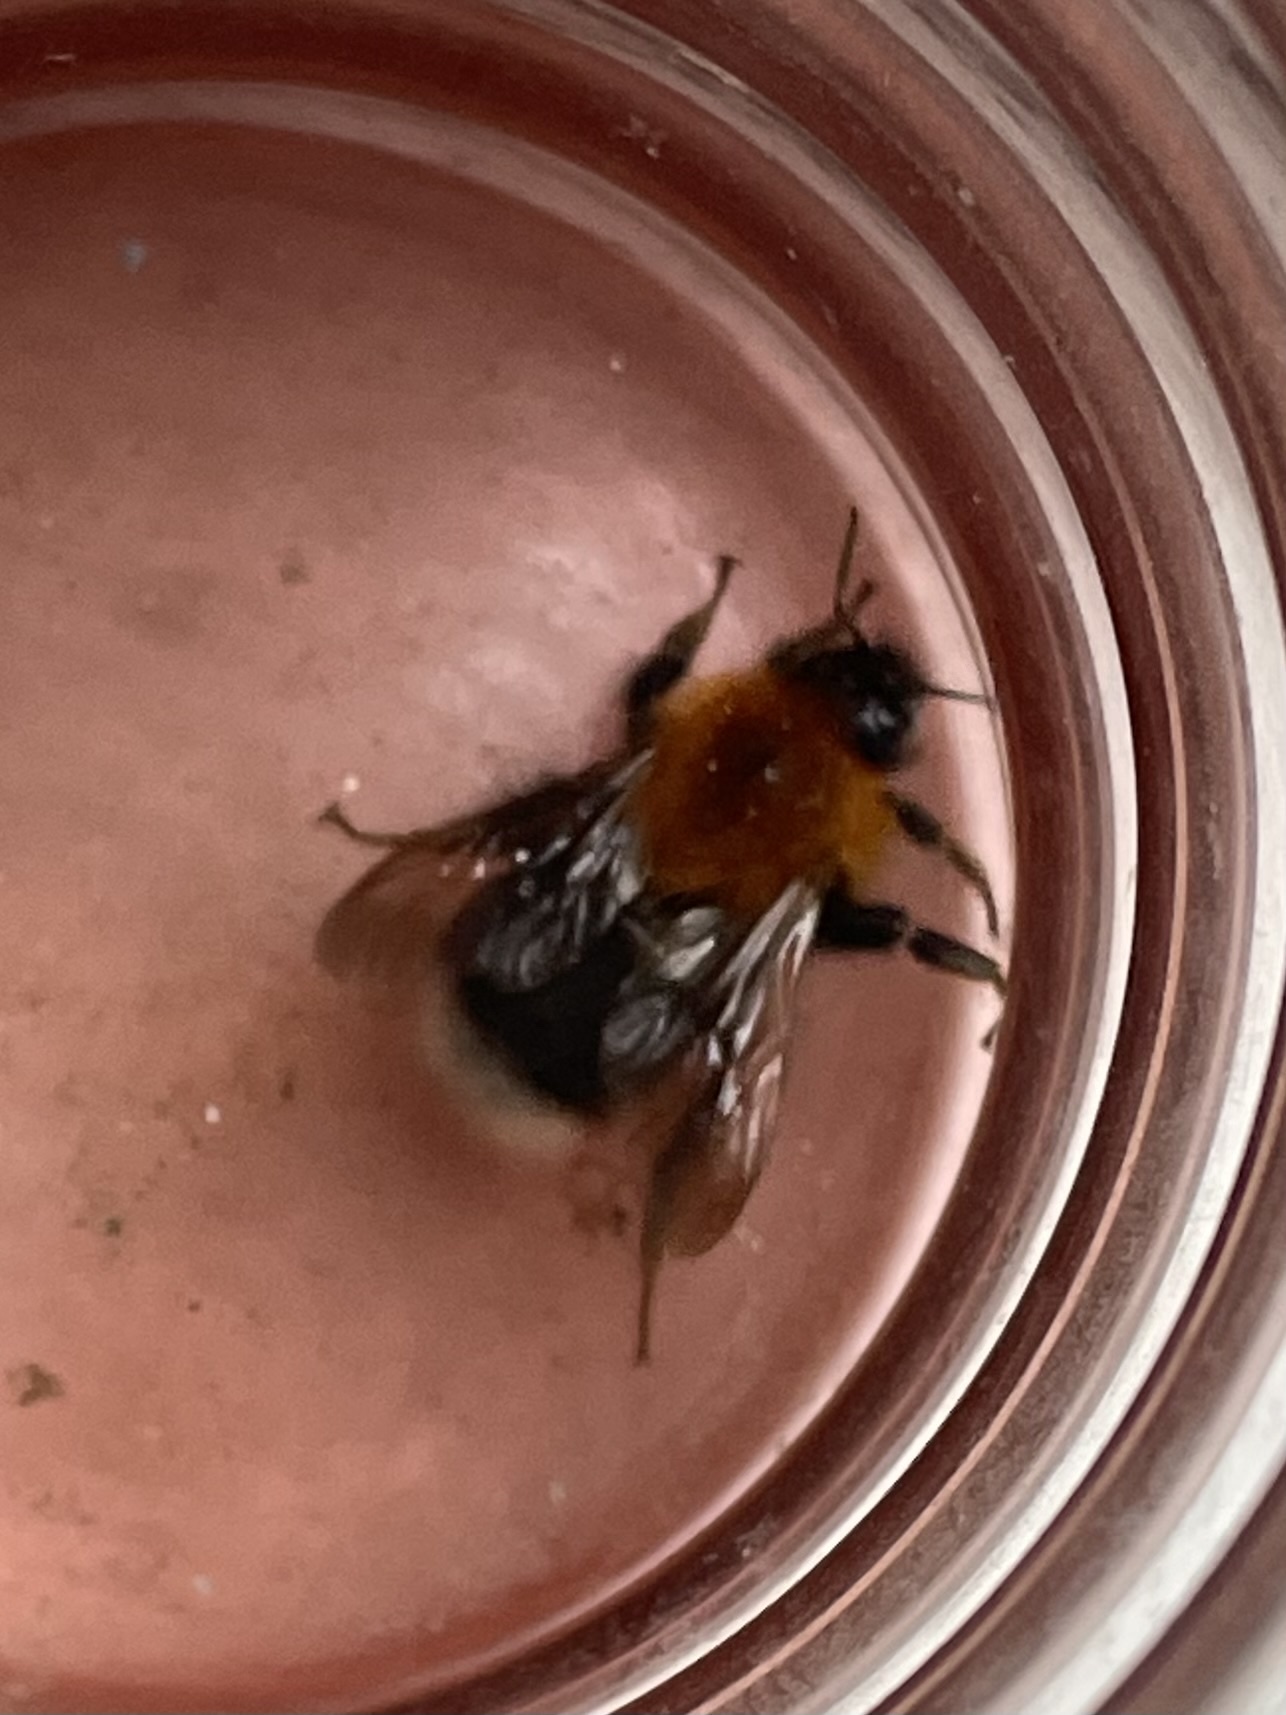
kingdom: Animalia
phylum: Arthropoda
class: Insecta
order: Hymenoptera
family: Apidae
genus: Bombus
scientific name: Bombus hypnorum
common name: New garden bumblebee
